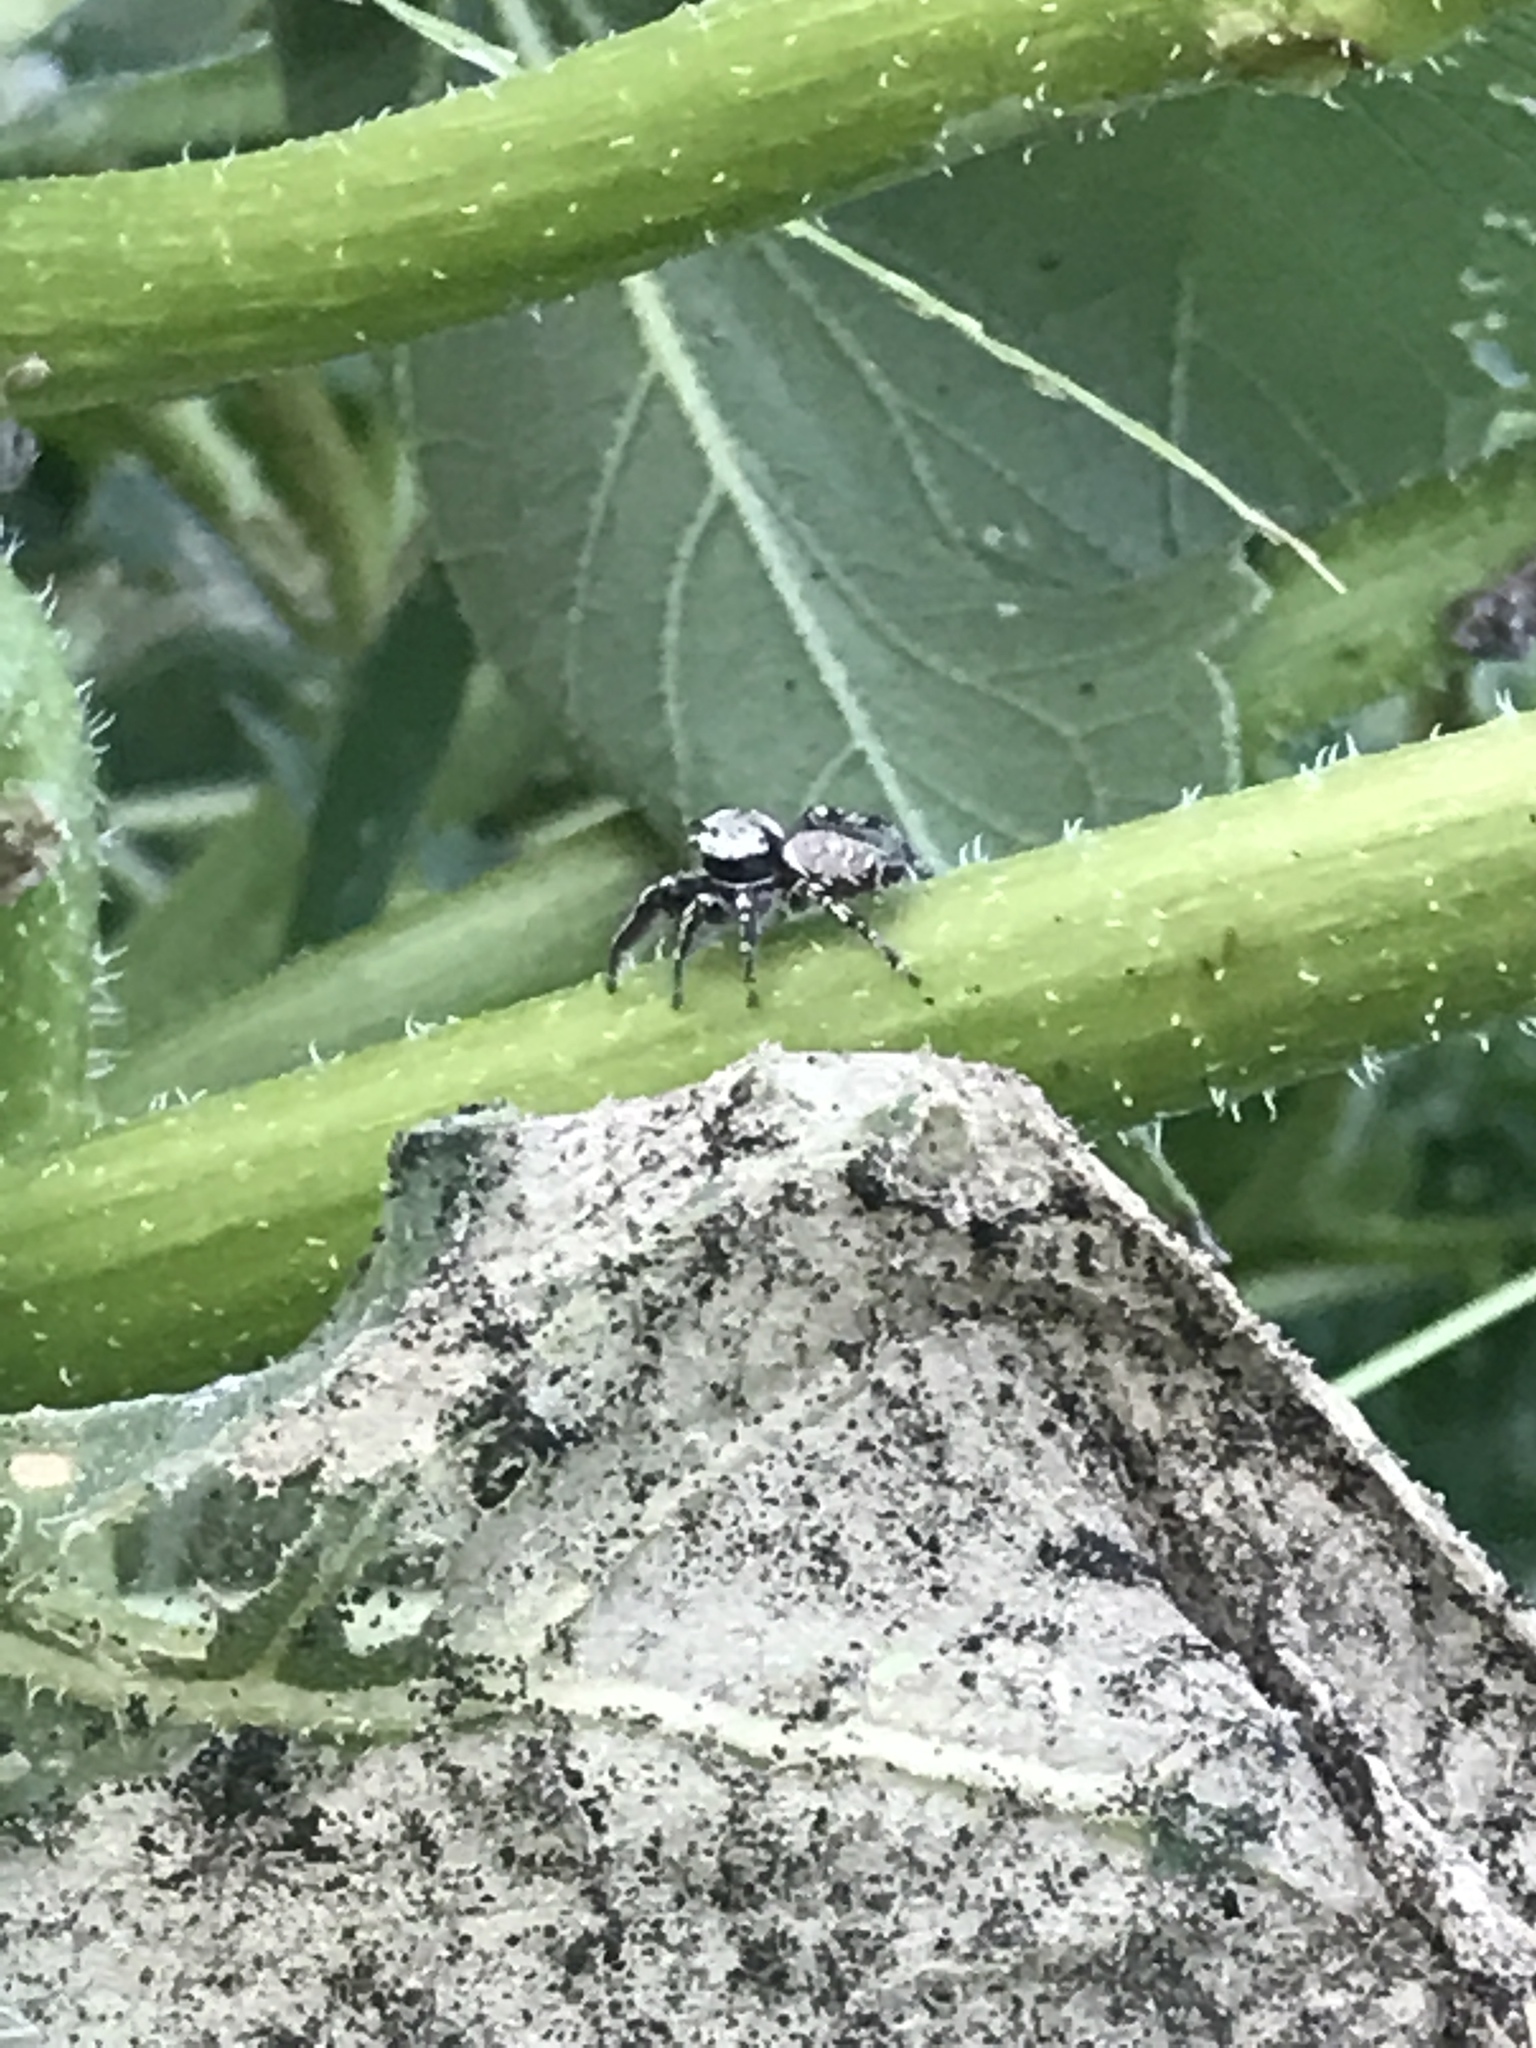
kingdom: Animalia
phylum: Arthropoda
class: Arachnida
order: Araneae
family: Salticidae
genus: Phidippus
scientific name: Phidippus carolinensis
